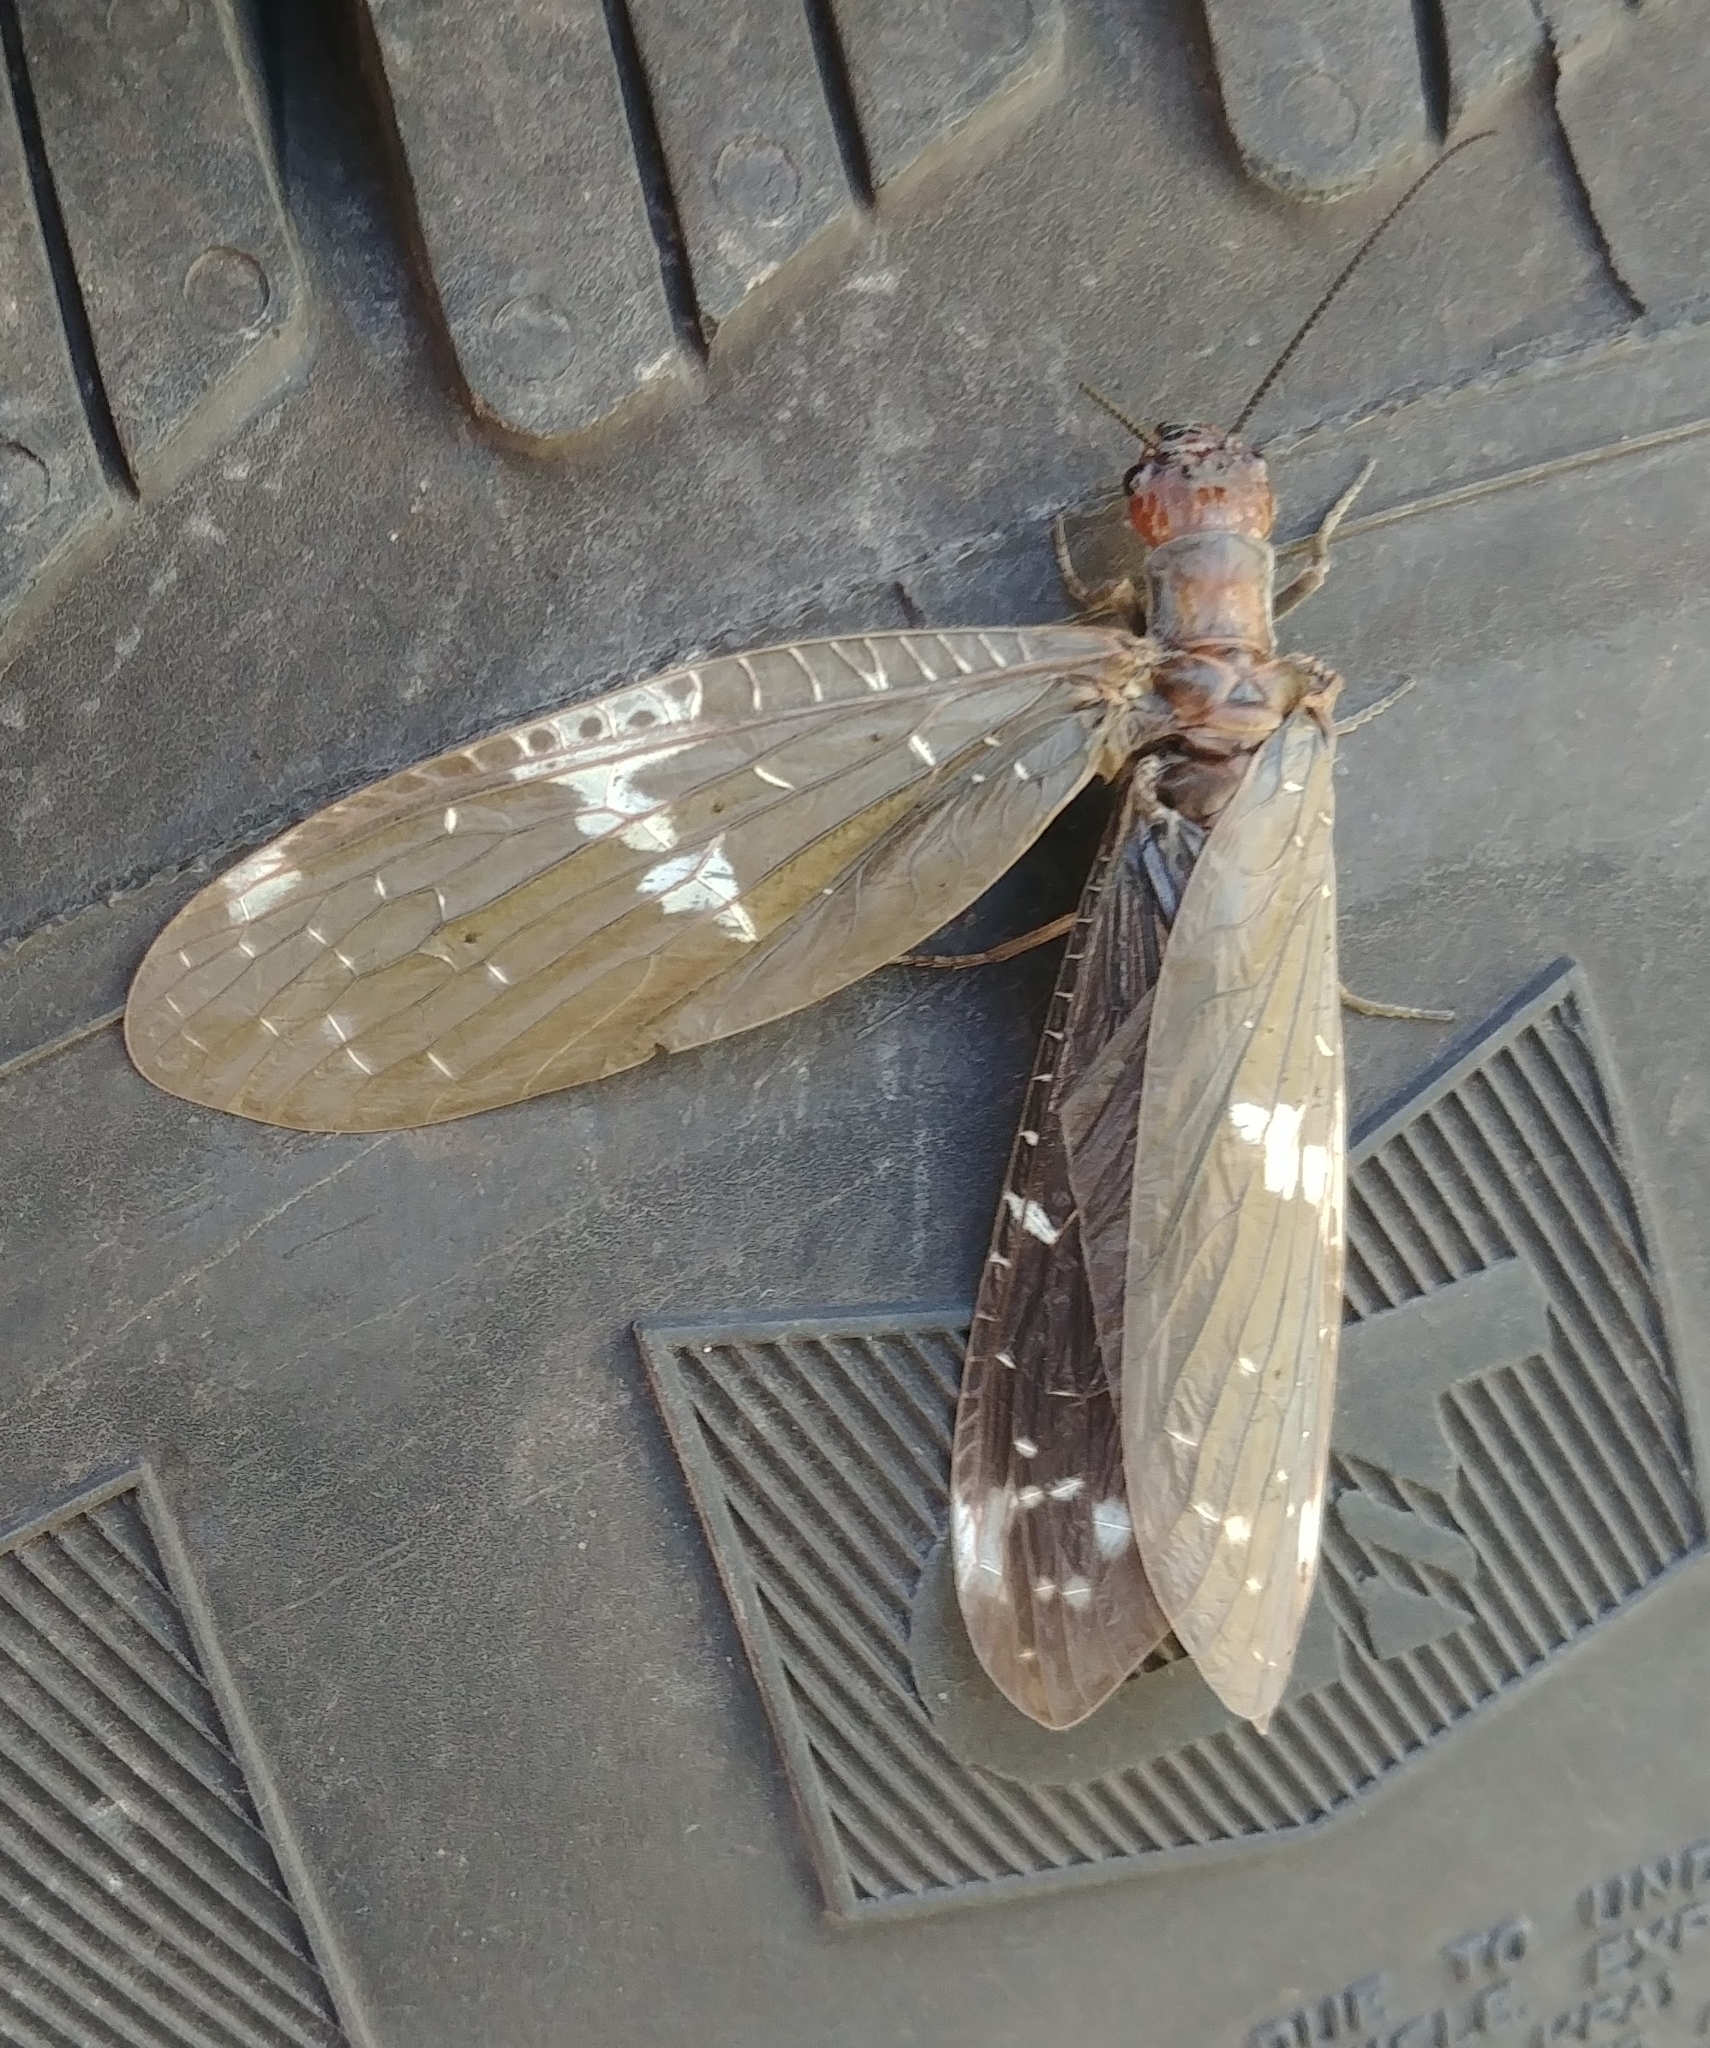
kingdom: Animalia
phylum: Arthropoda
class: Insecta
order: Megaloptera
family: Corydalidae
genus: Nigronia
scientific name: Nigronia serricornis
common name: Serrate dark fishfly
